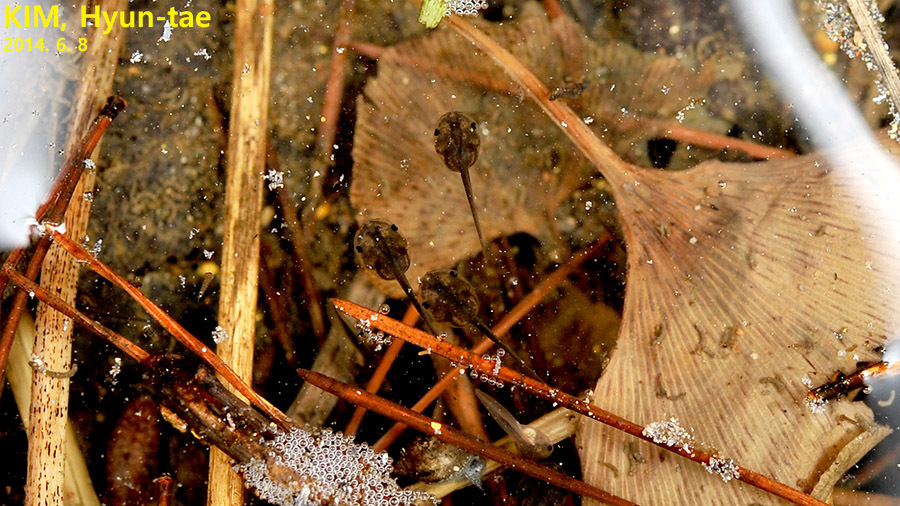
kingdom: Animalia
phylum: Chordata
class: Amphibia
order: Anura
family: Microhylidae
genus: Kaloula
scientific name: Kaloula borealis
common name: Boreal digging frog
